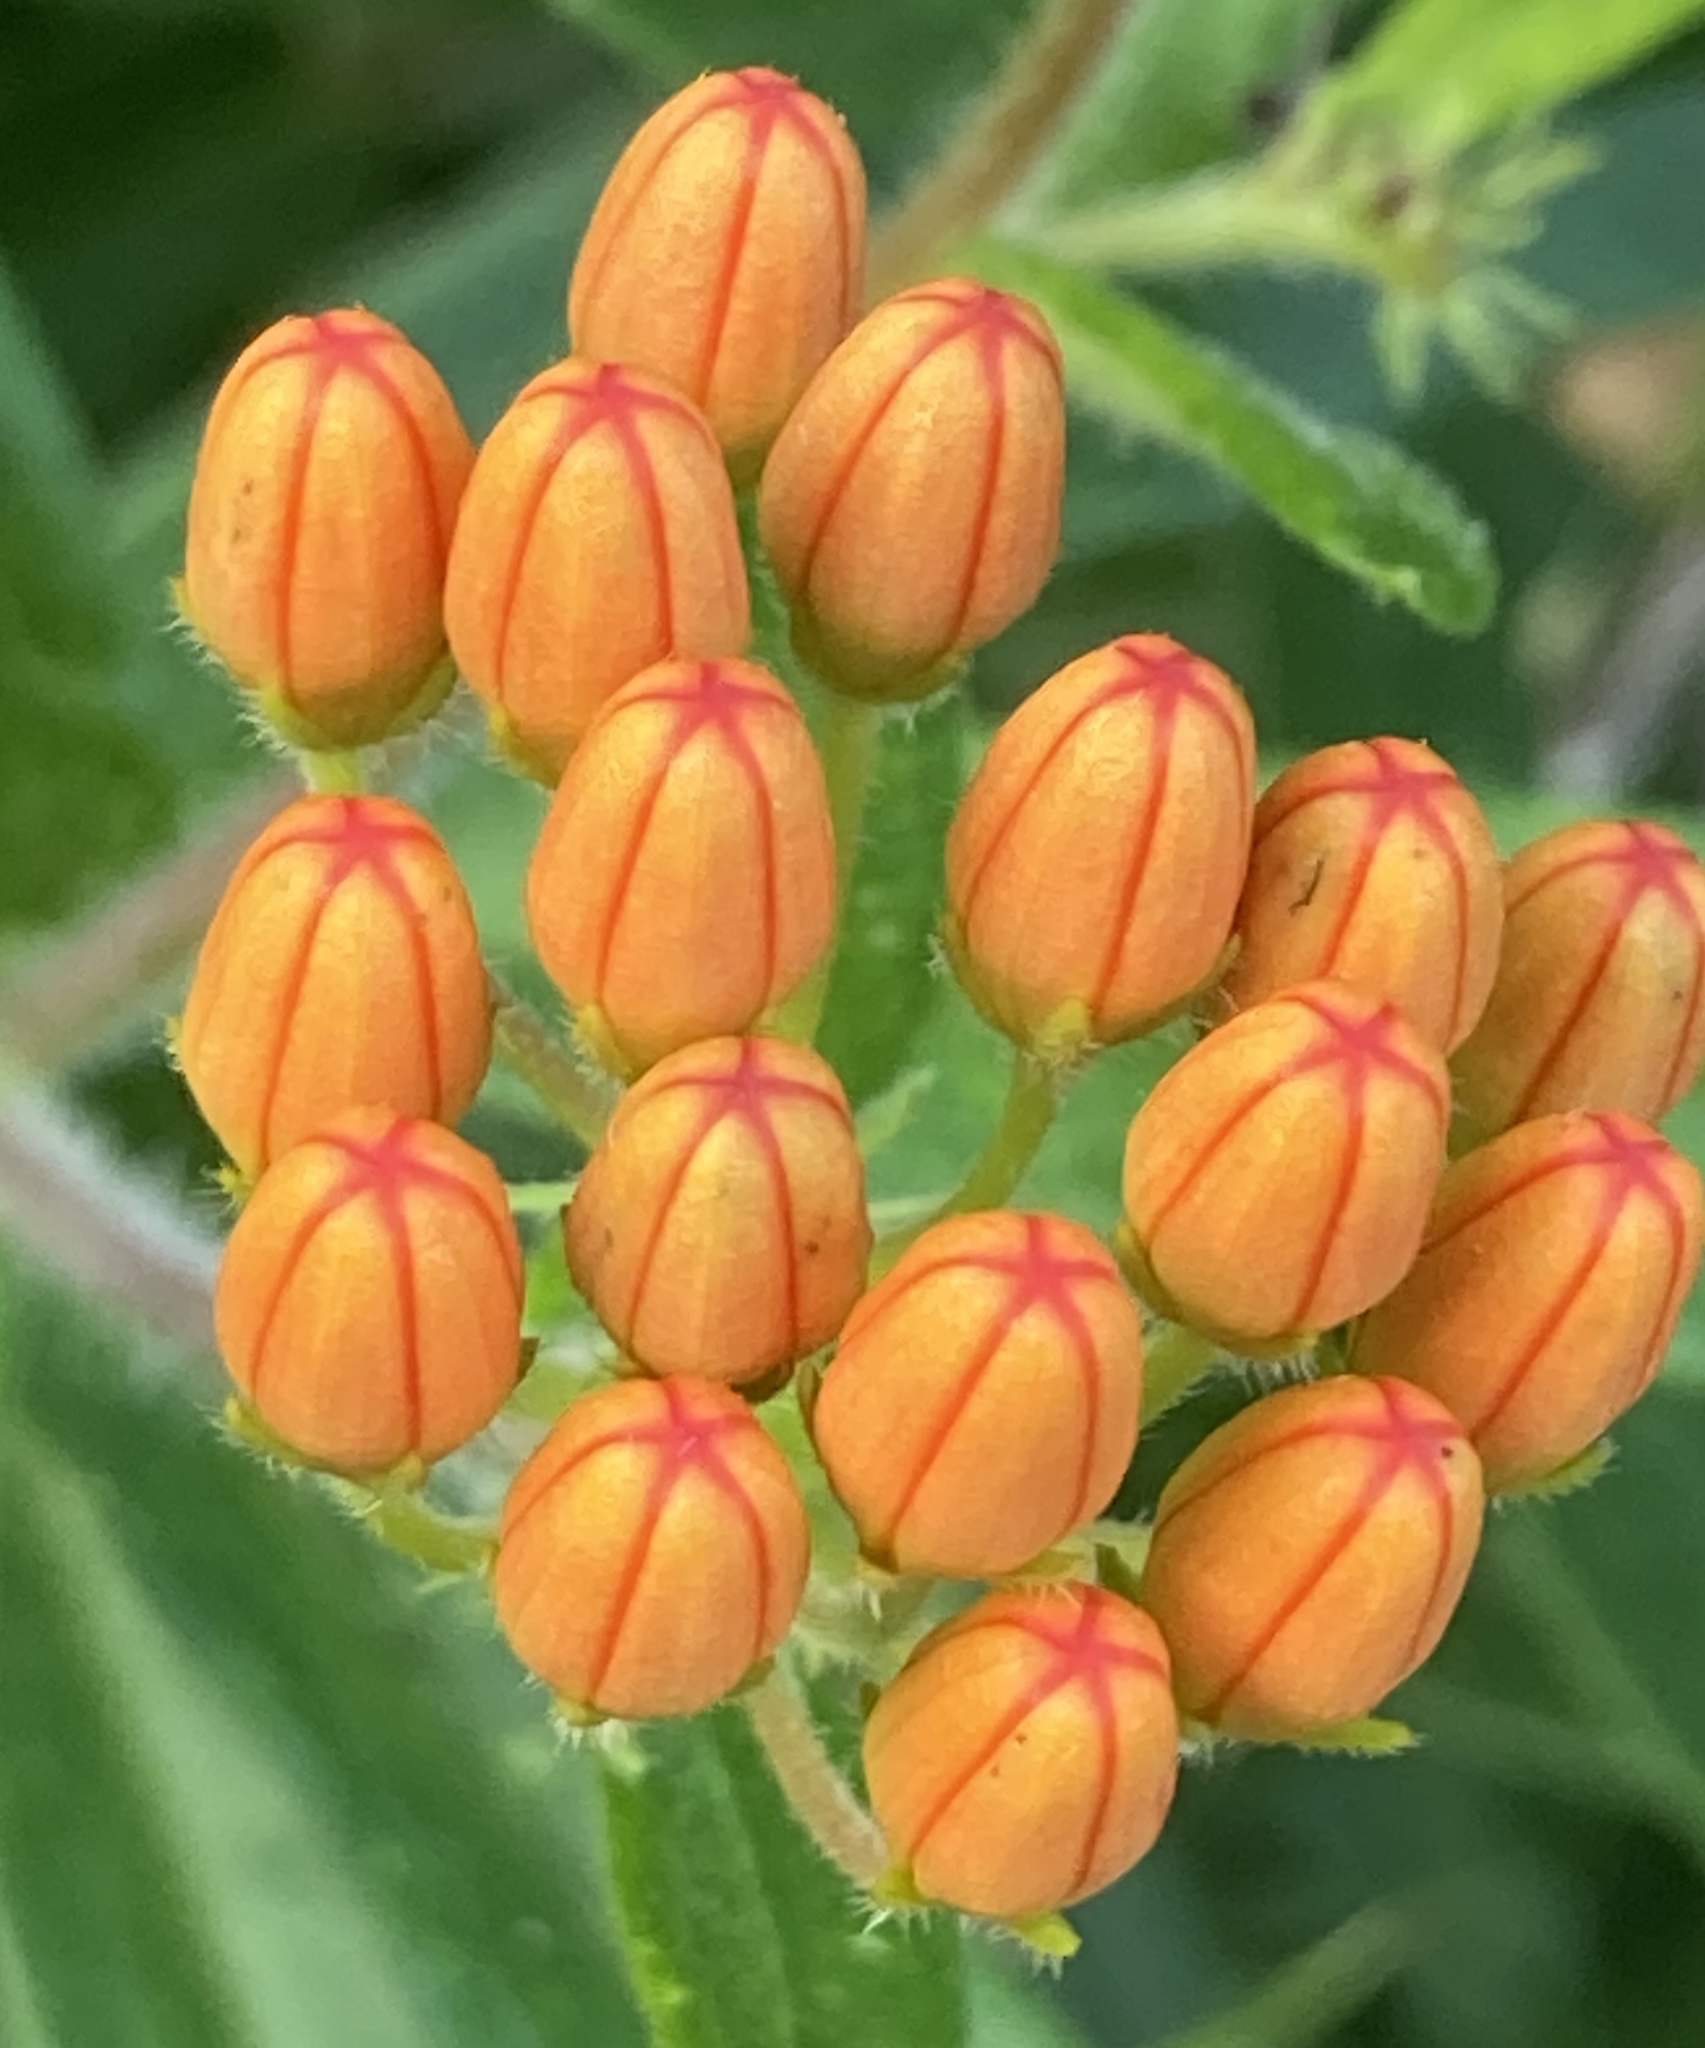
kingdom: Plantae
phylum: Tracheophyta
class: Magnoliopsida
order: Gentianales
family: Apocynaceae
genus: Asclepias
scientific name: Asclepias tuberosa
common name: Butterfly milkweed
